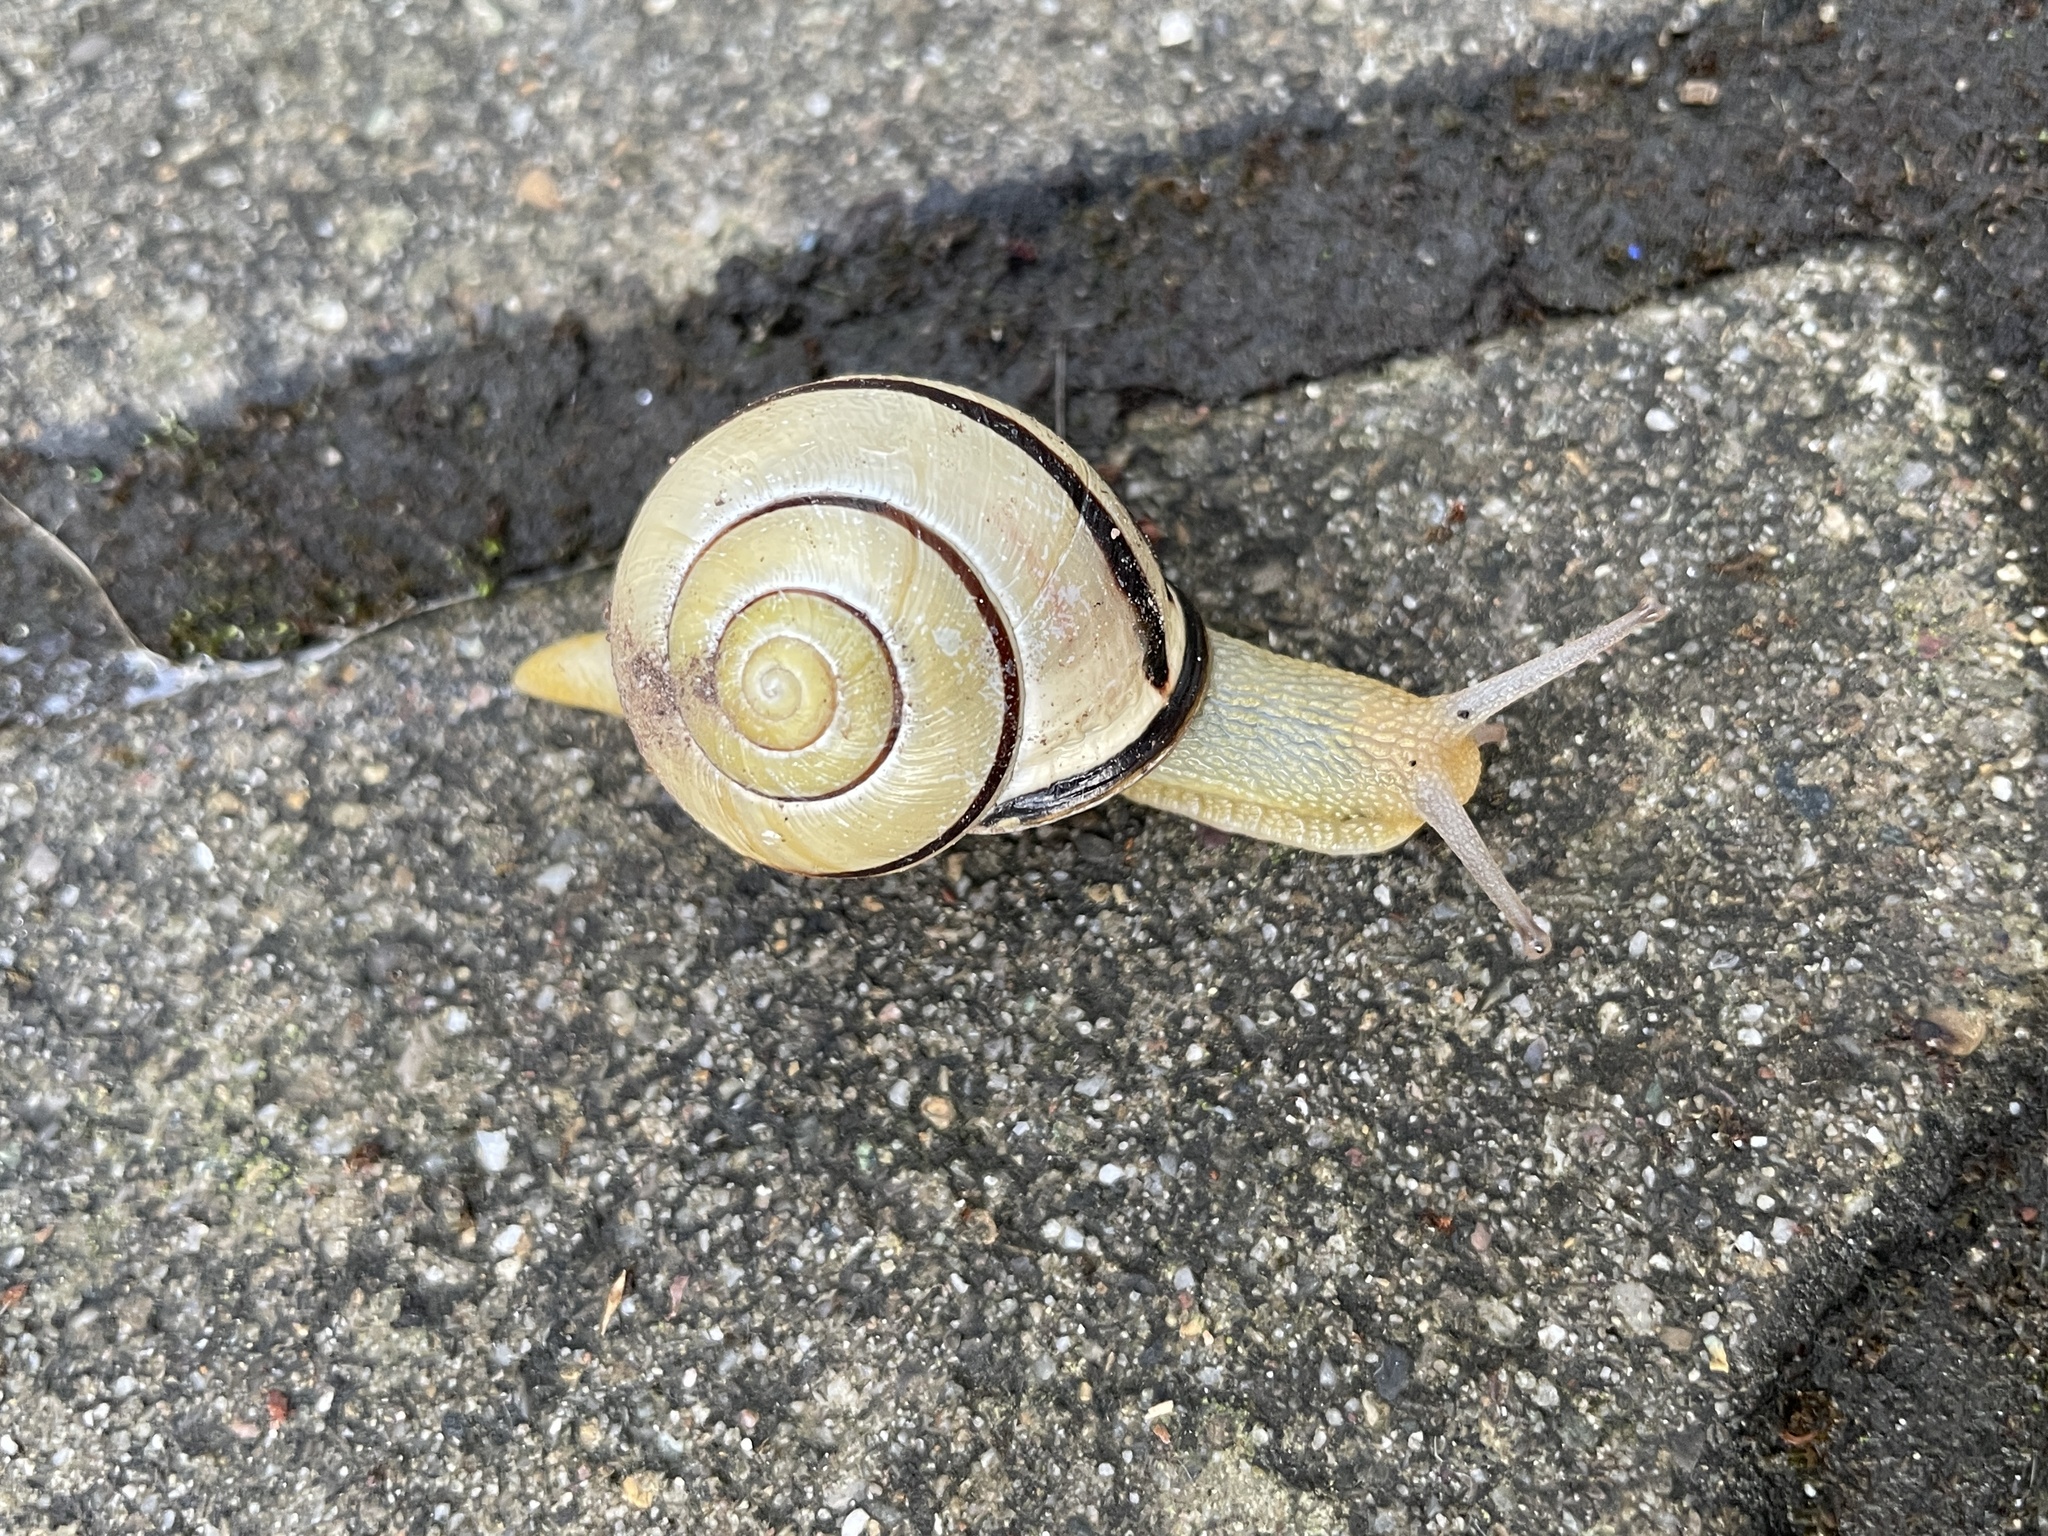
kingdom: Animalia
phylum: Mollusca
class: Gastropoda
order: Stylommatophora
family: Helicidae
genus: Cepaea
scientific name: Cepaea nemoralis
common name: Grovesnail
